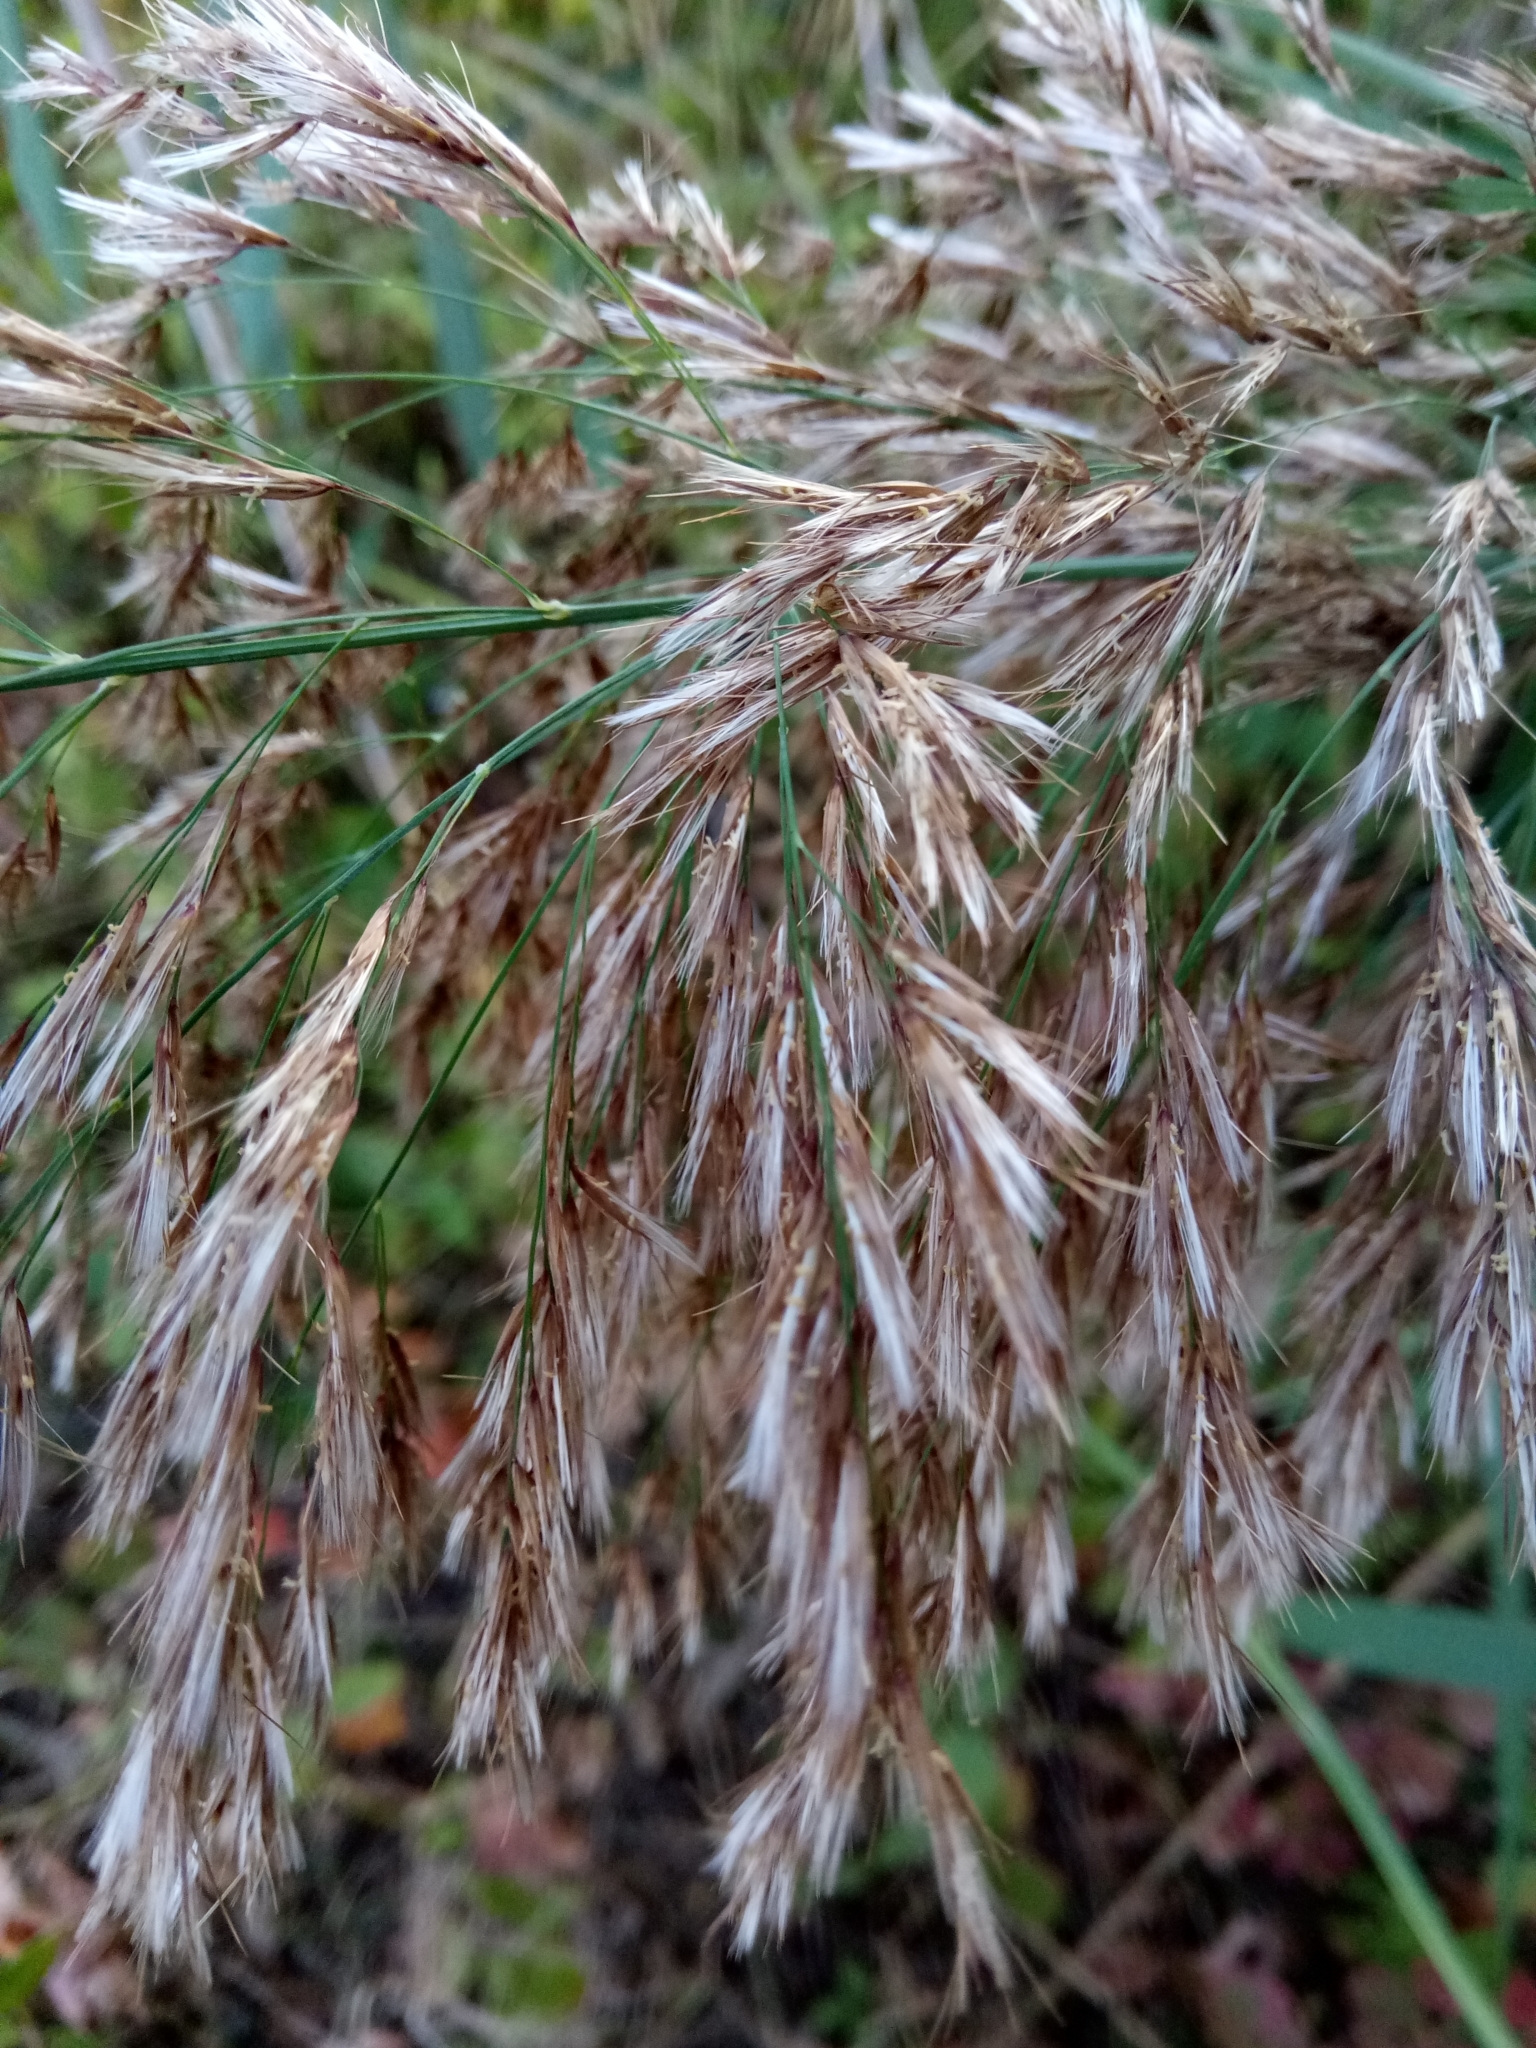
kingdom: Plantae
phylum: Tracheophyta
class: Liliopsida
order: Poales
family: Poaceae
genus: Phragmites
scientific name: Phragmites australis
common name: Common reed
